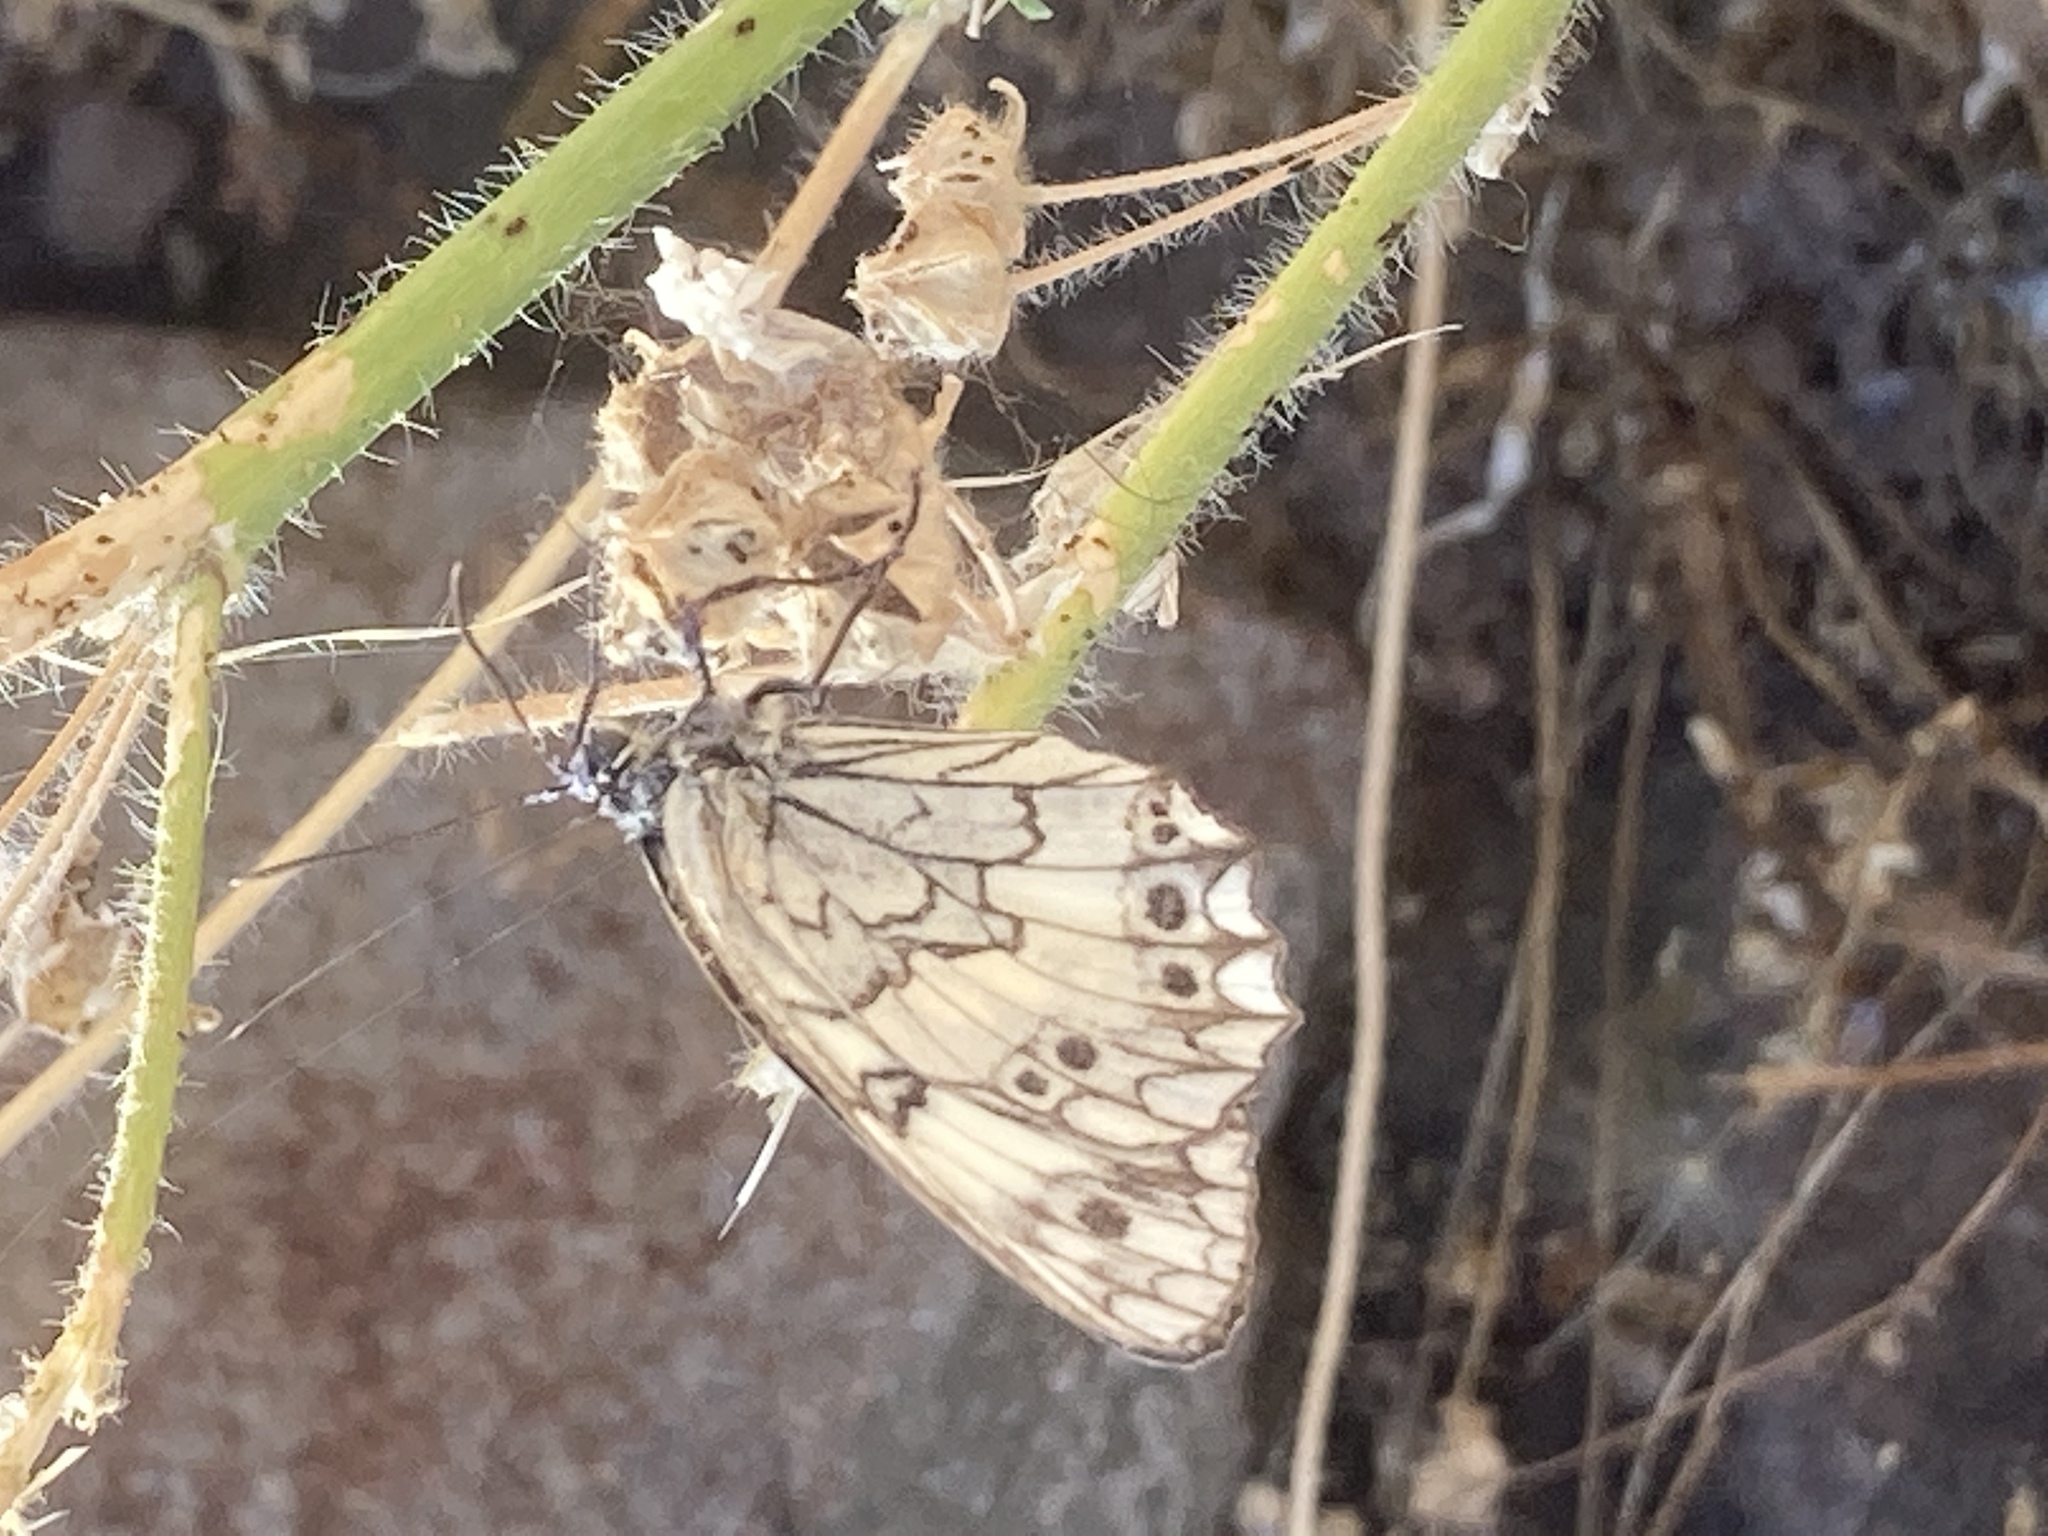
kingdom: Animalia
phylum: Arthropoda
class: Insecta
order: Lepidoptera
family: Nymphalidae
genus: Melanargia
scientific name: Melanargia larissa
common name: Balkan marbled white
